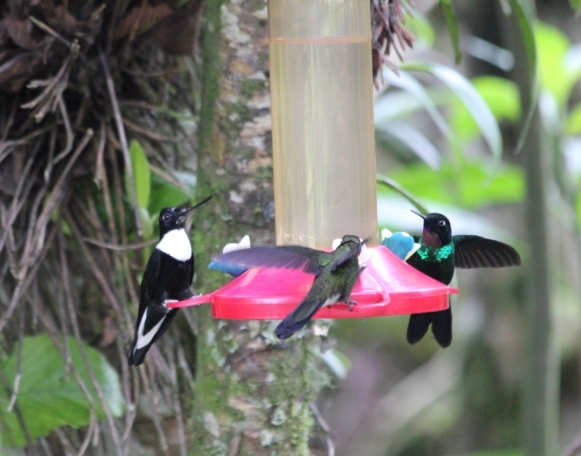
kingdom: Animalia
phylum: Chordata
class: Aves
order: Apodiformes
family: Trochilidae
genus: Coeligena
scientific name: Coeligena torquata
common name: Collared inca
